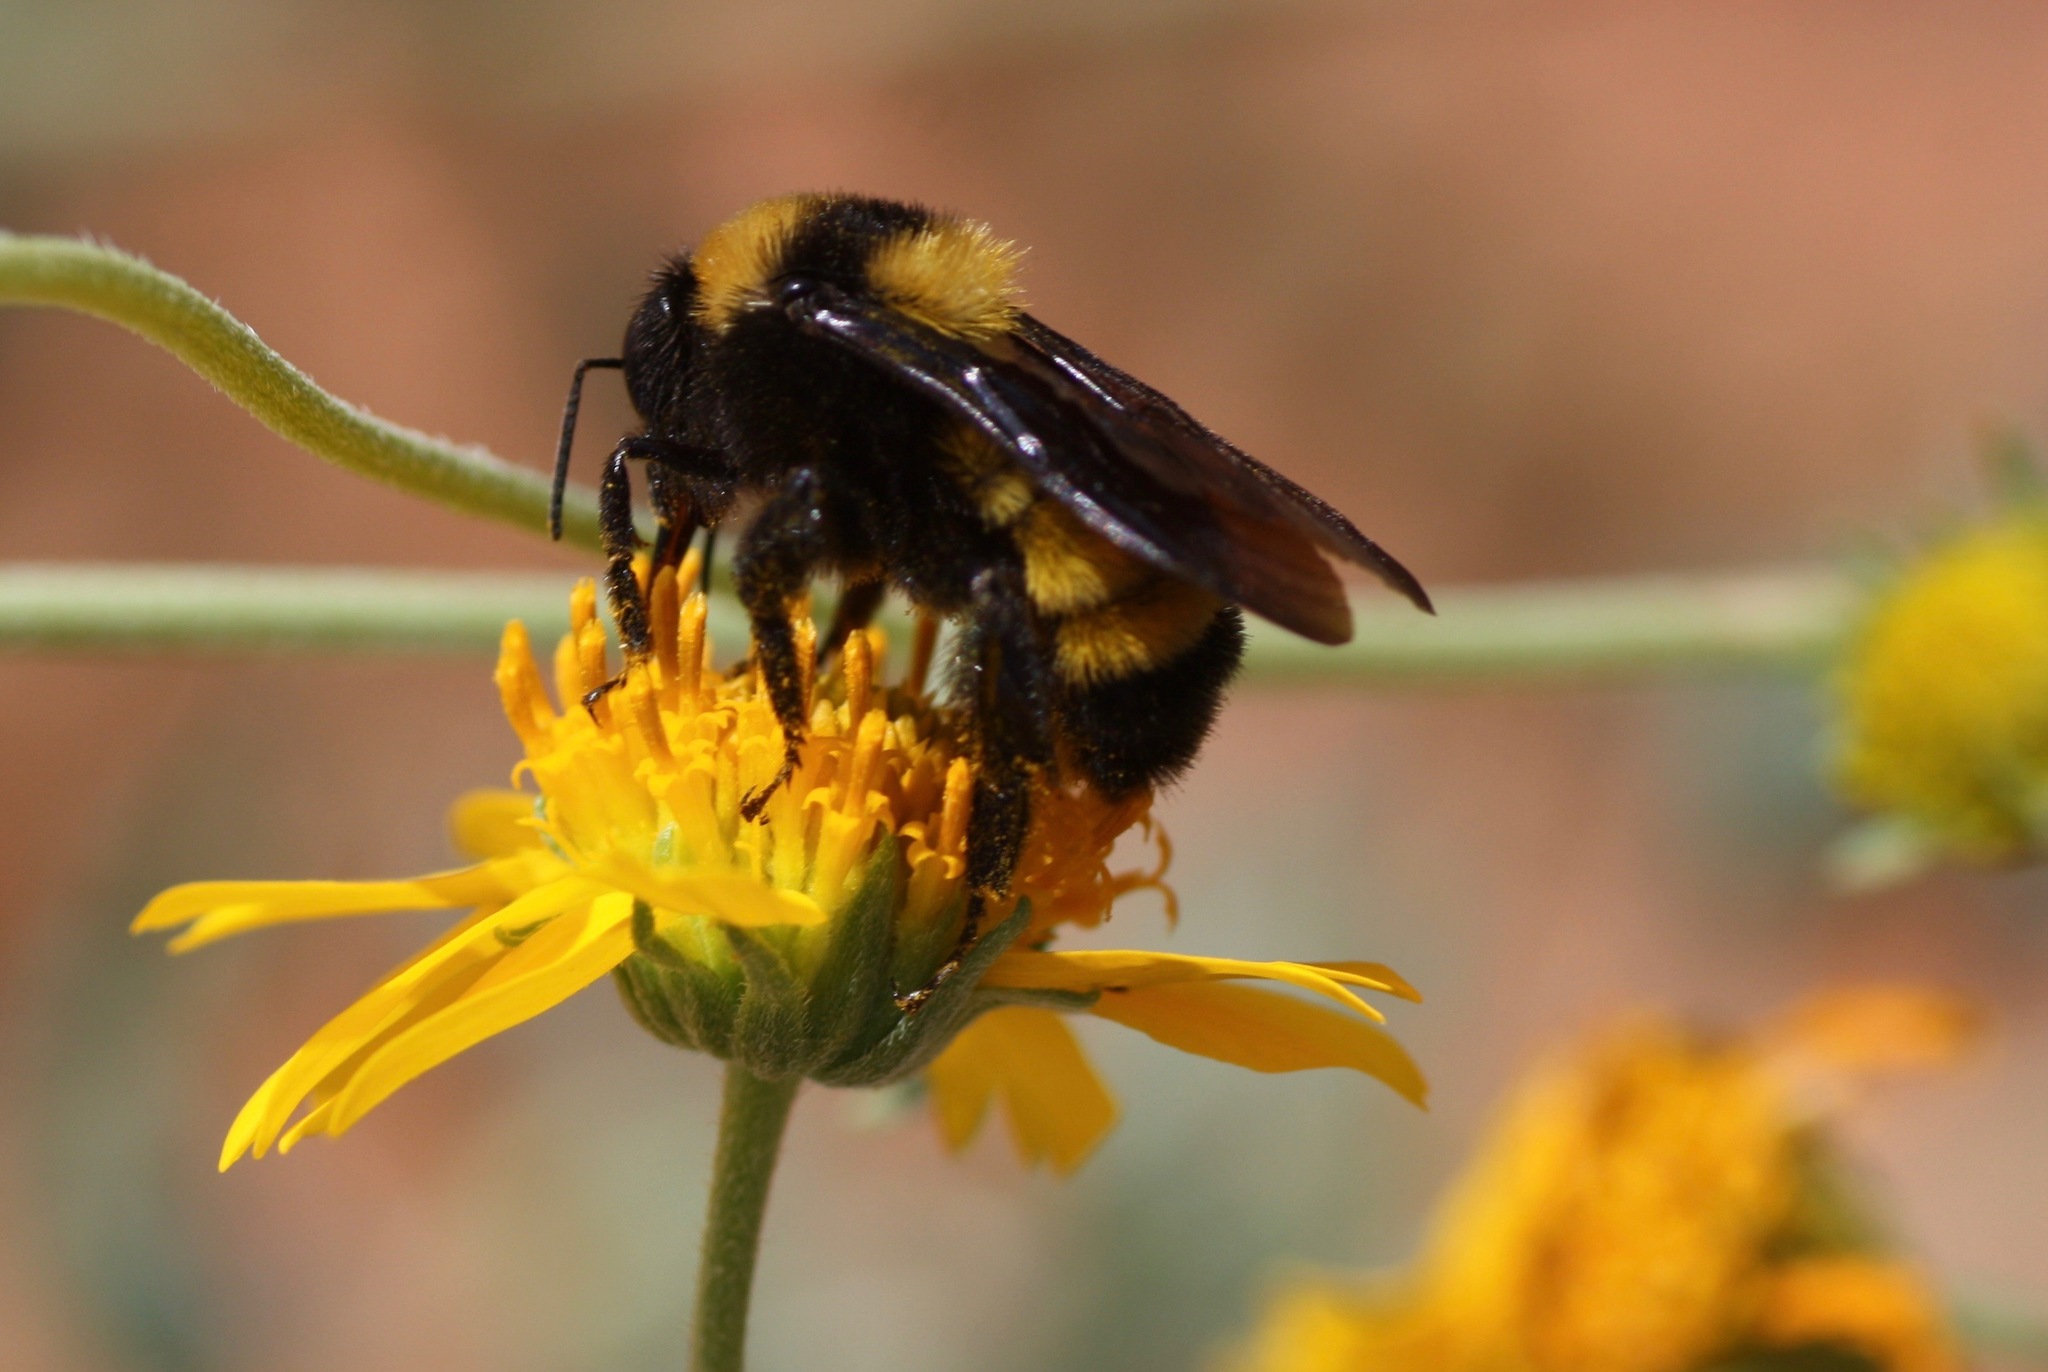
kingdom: Animalia
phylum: Arthropoda
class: Insecta
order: Hymenoptera
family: Apidae
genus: Bombus
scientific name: Bombus sonorus
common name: Sonoran bumble bee
